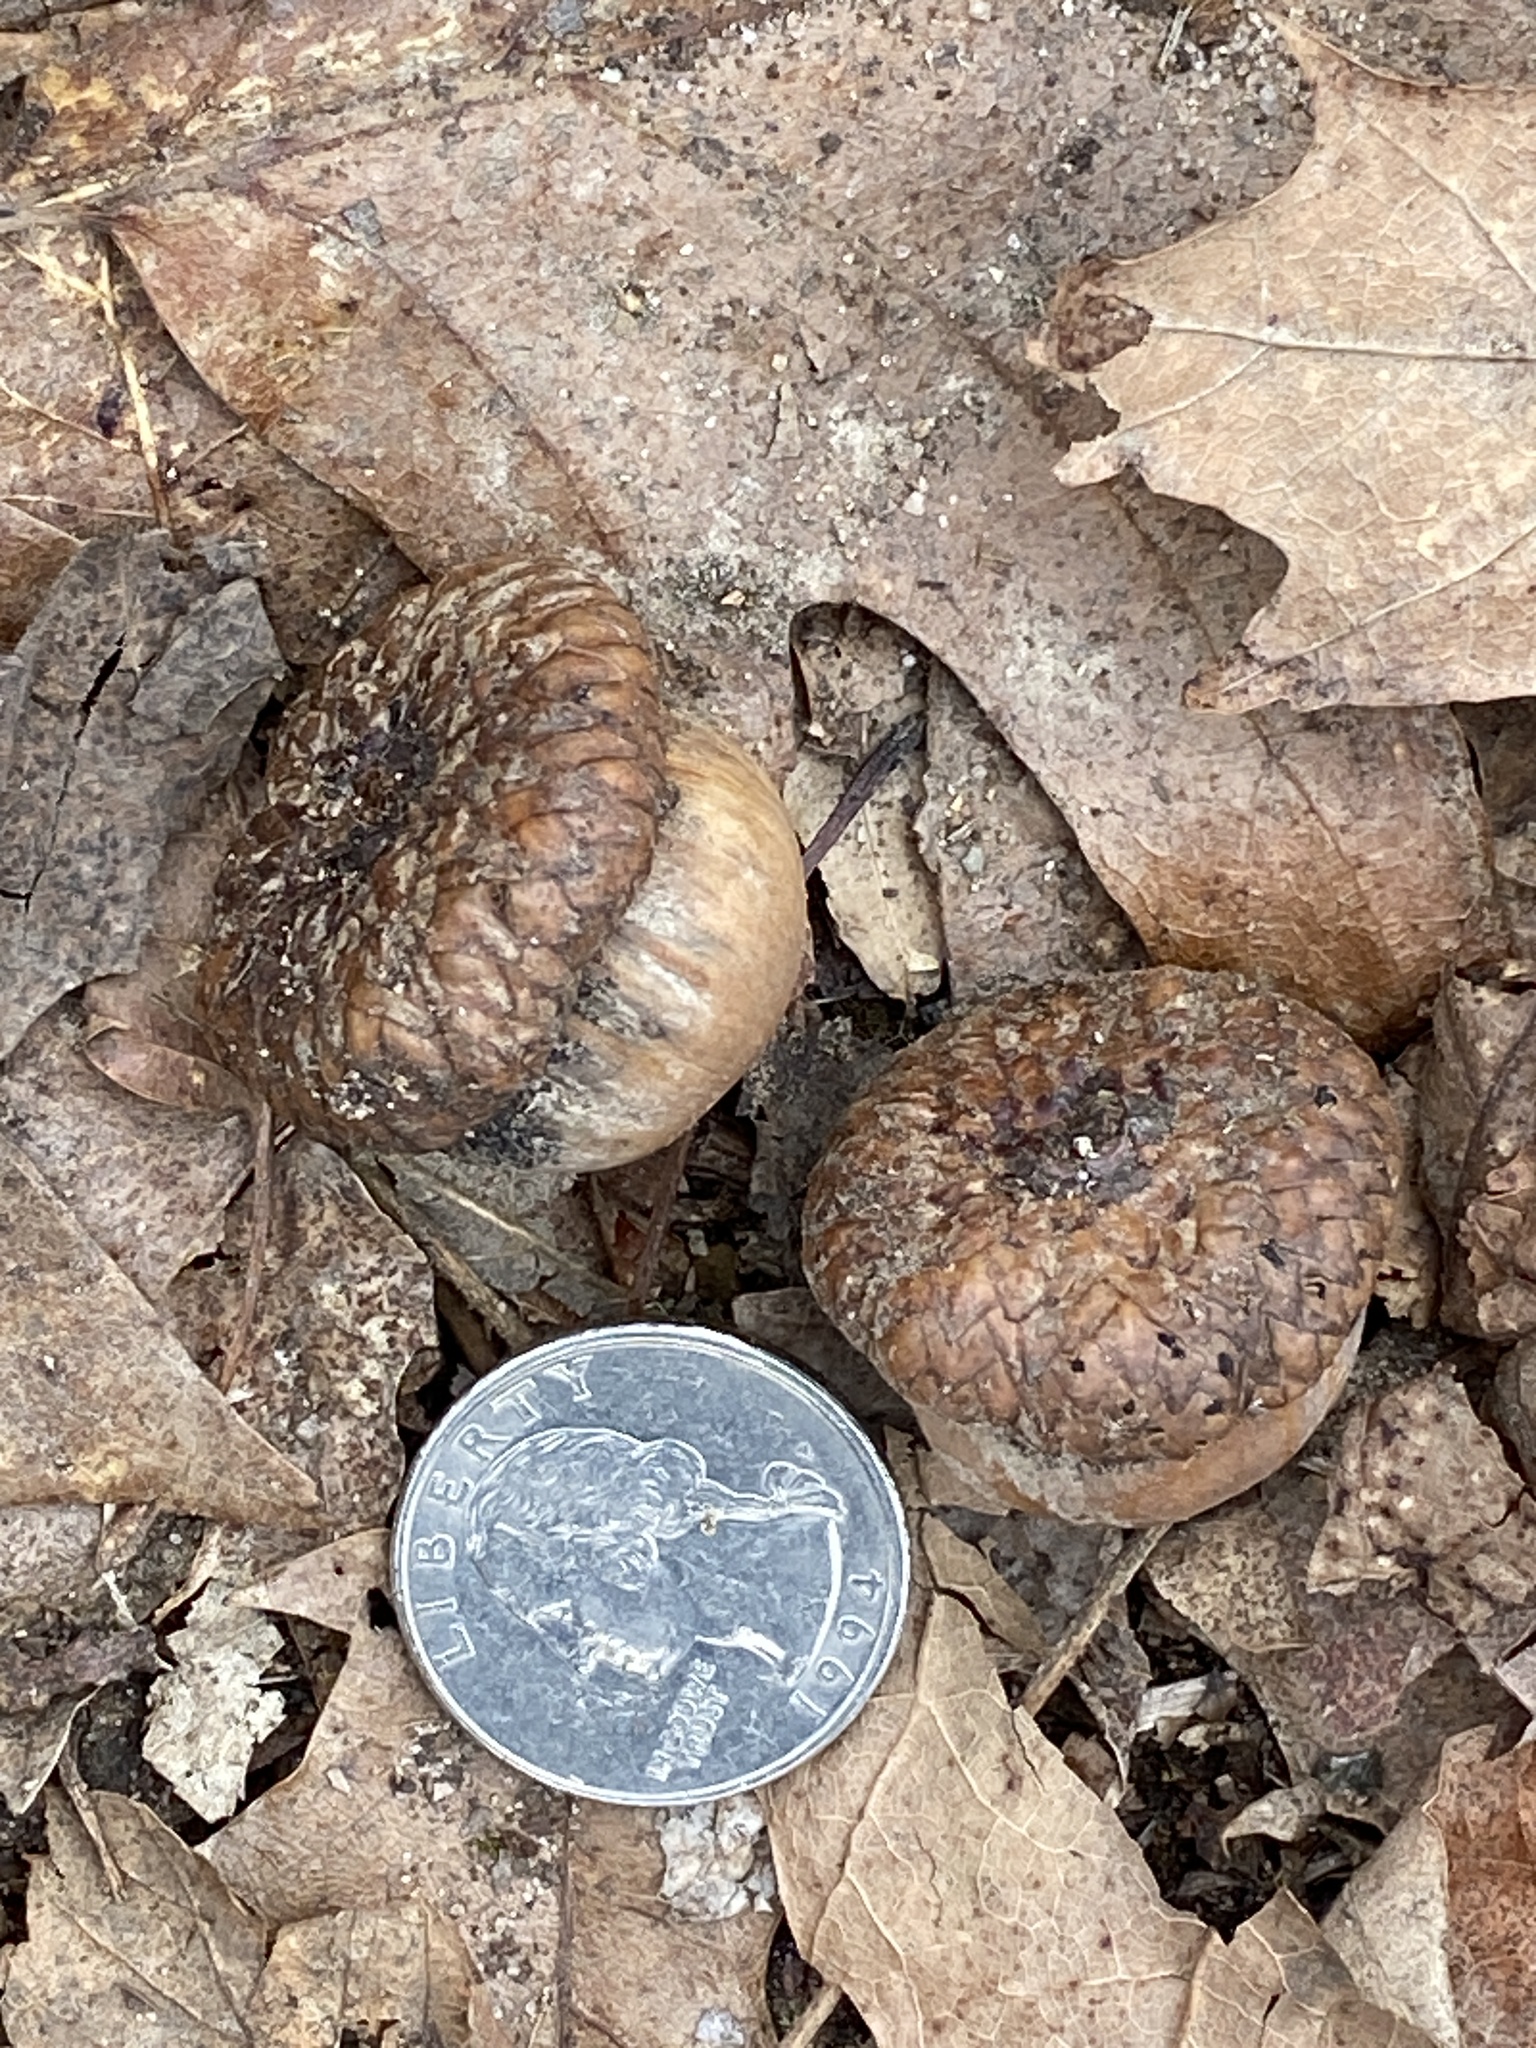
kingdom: Plantae
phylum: Tracheophyta
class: Magnoliopsida
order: Fagales
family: Fagaceae
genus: Quercus
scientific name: Quercus rubra
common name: Red oak
